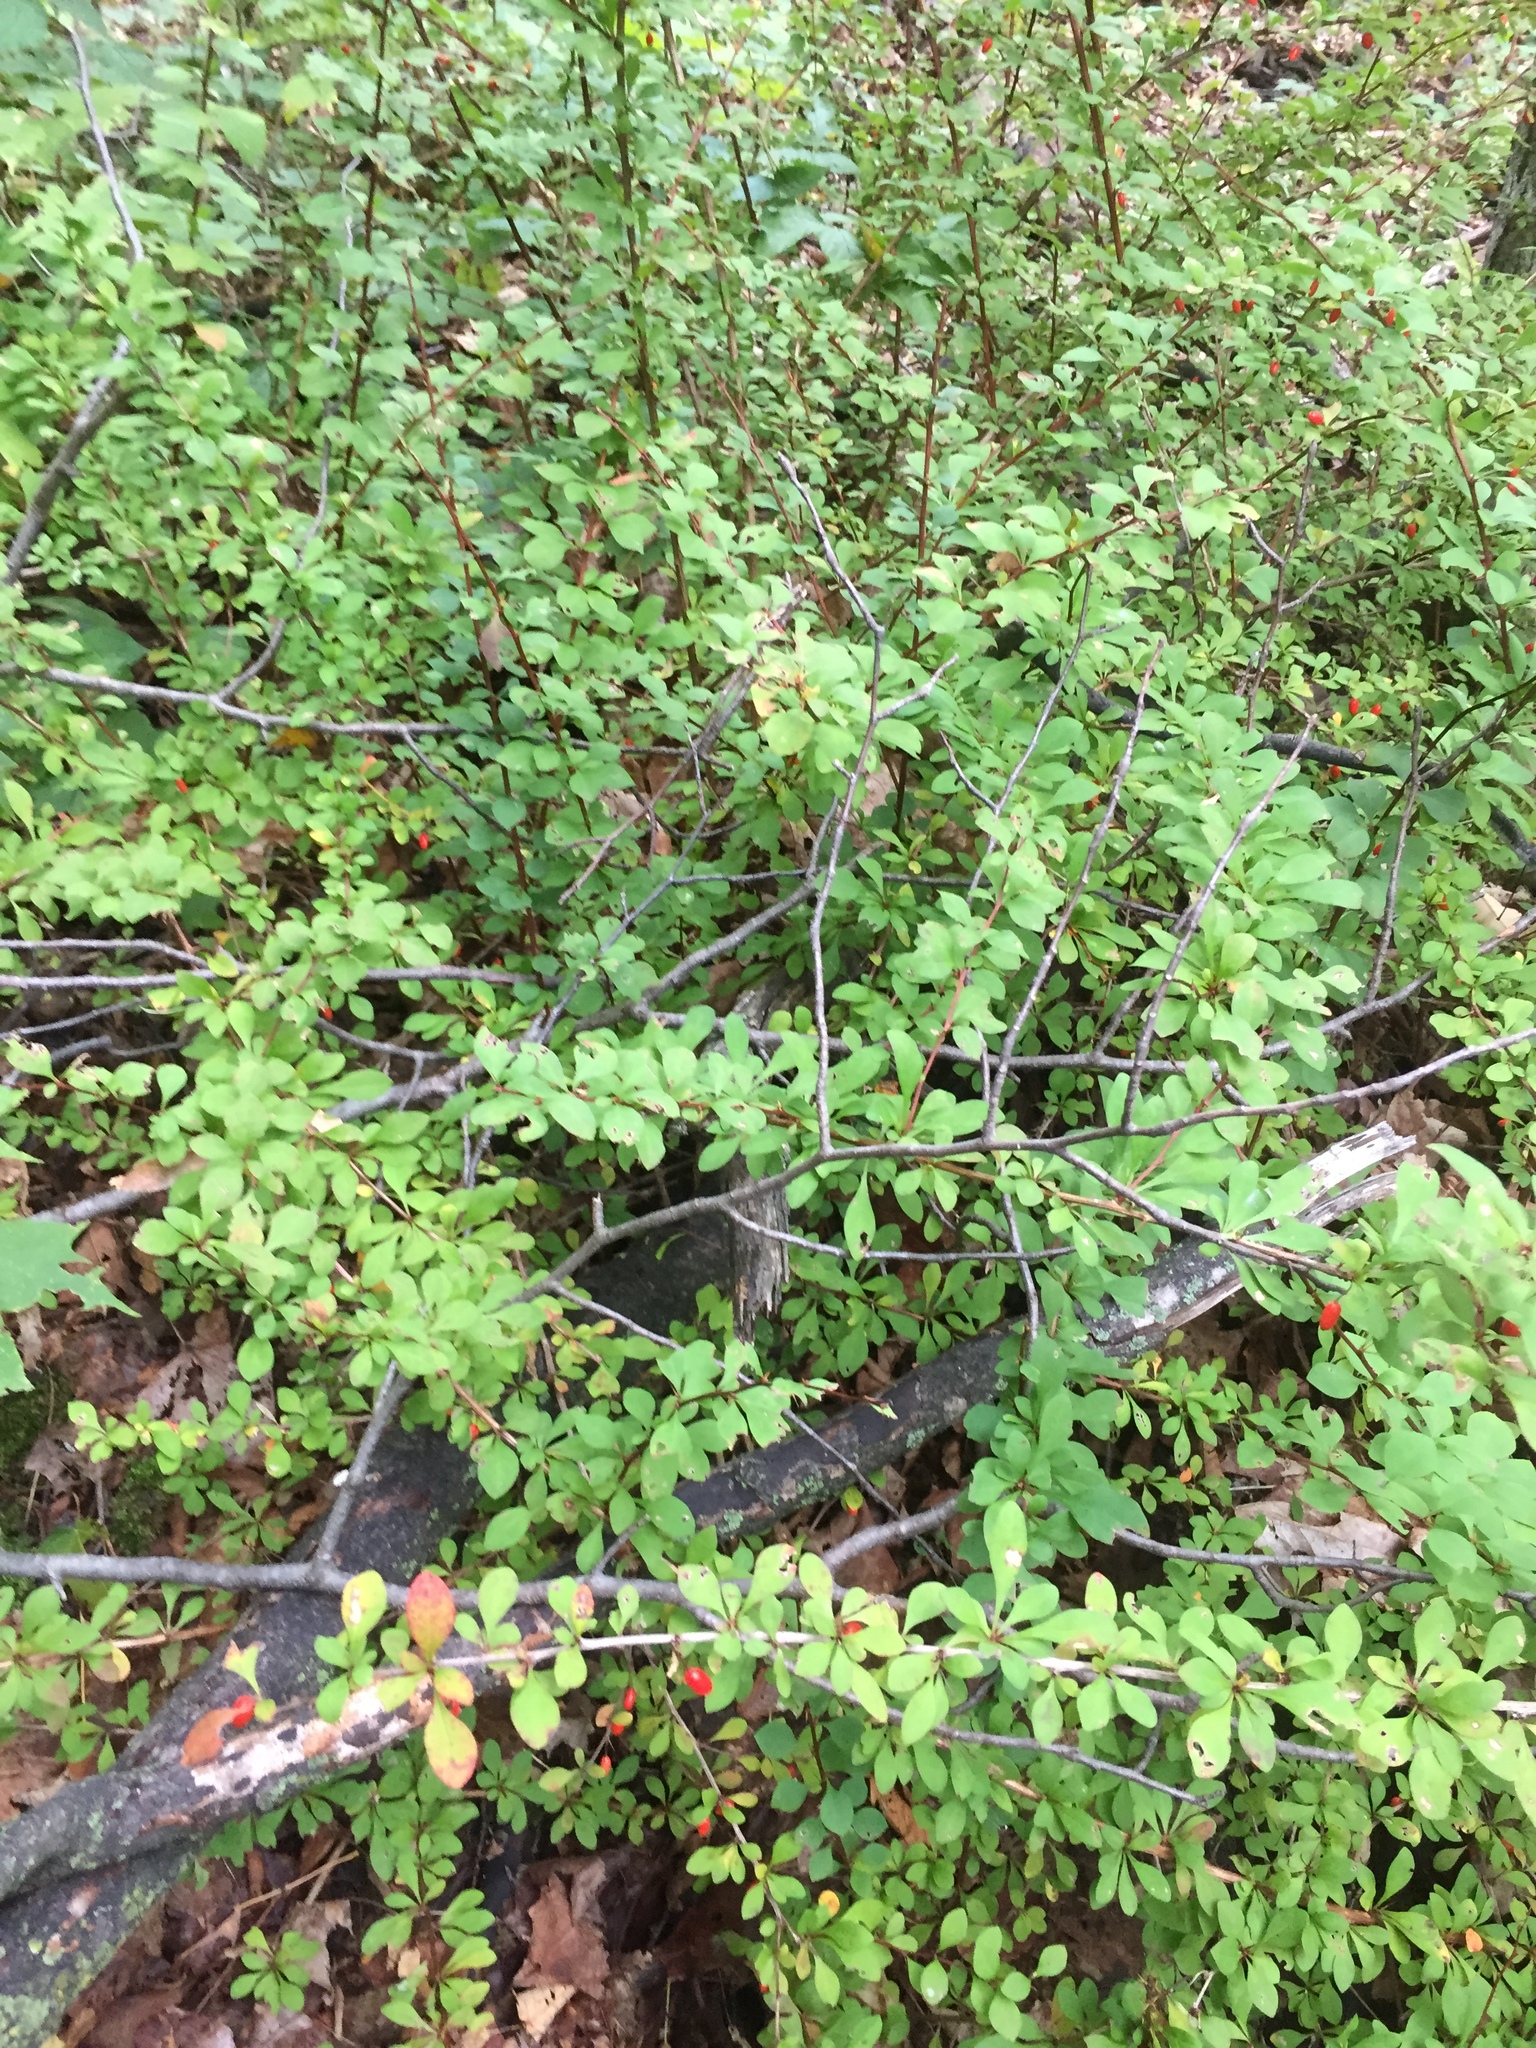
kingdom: Plantae
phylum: Tracheophyta
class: Magnoliopsida
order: Ranunculales
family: Berberidaceae
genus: Berberis
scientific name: Berberis thunbergii
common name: Japanese barberry
